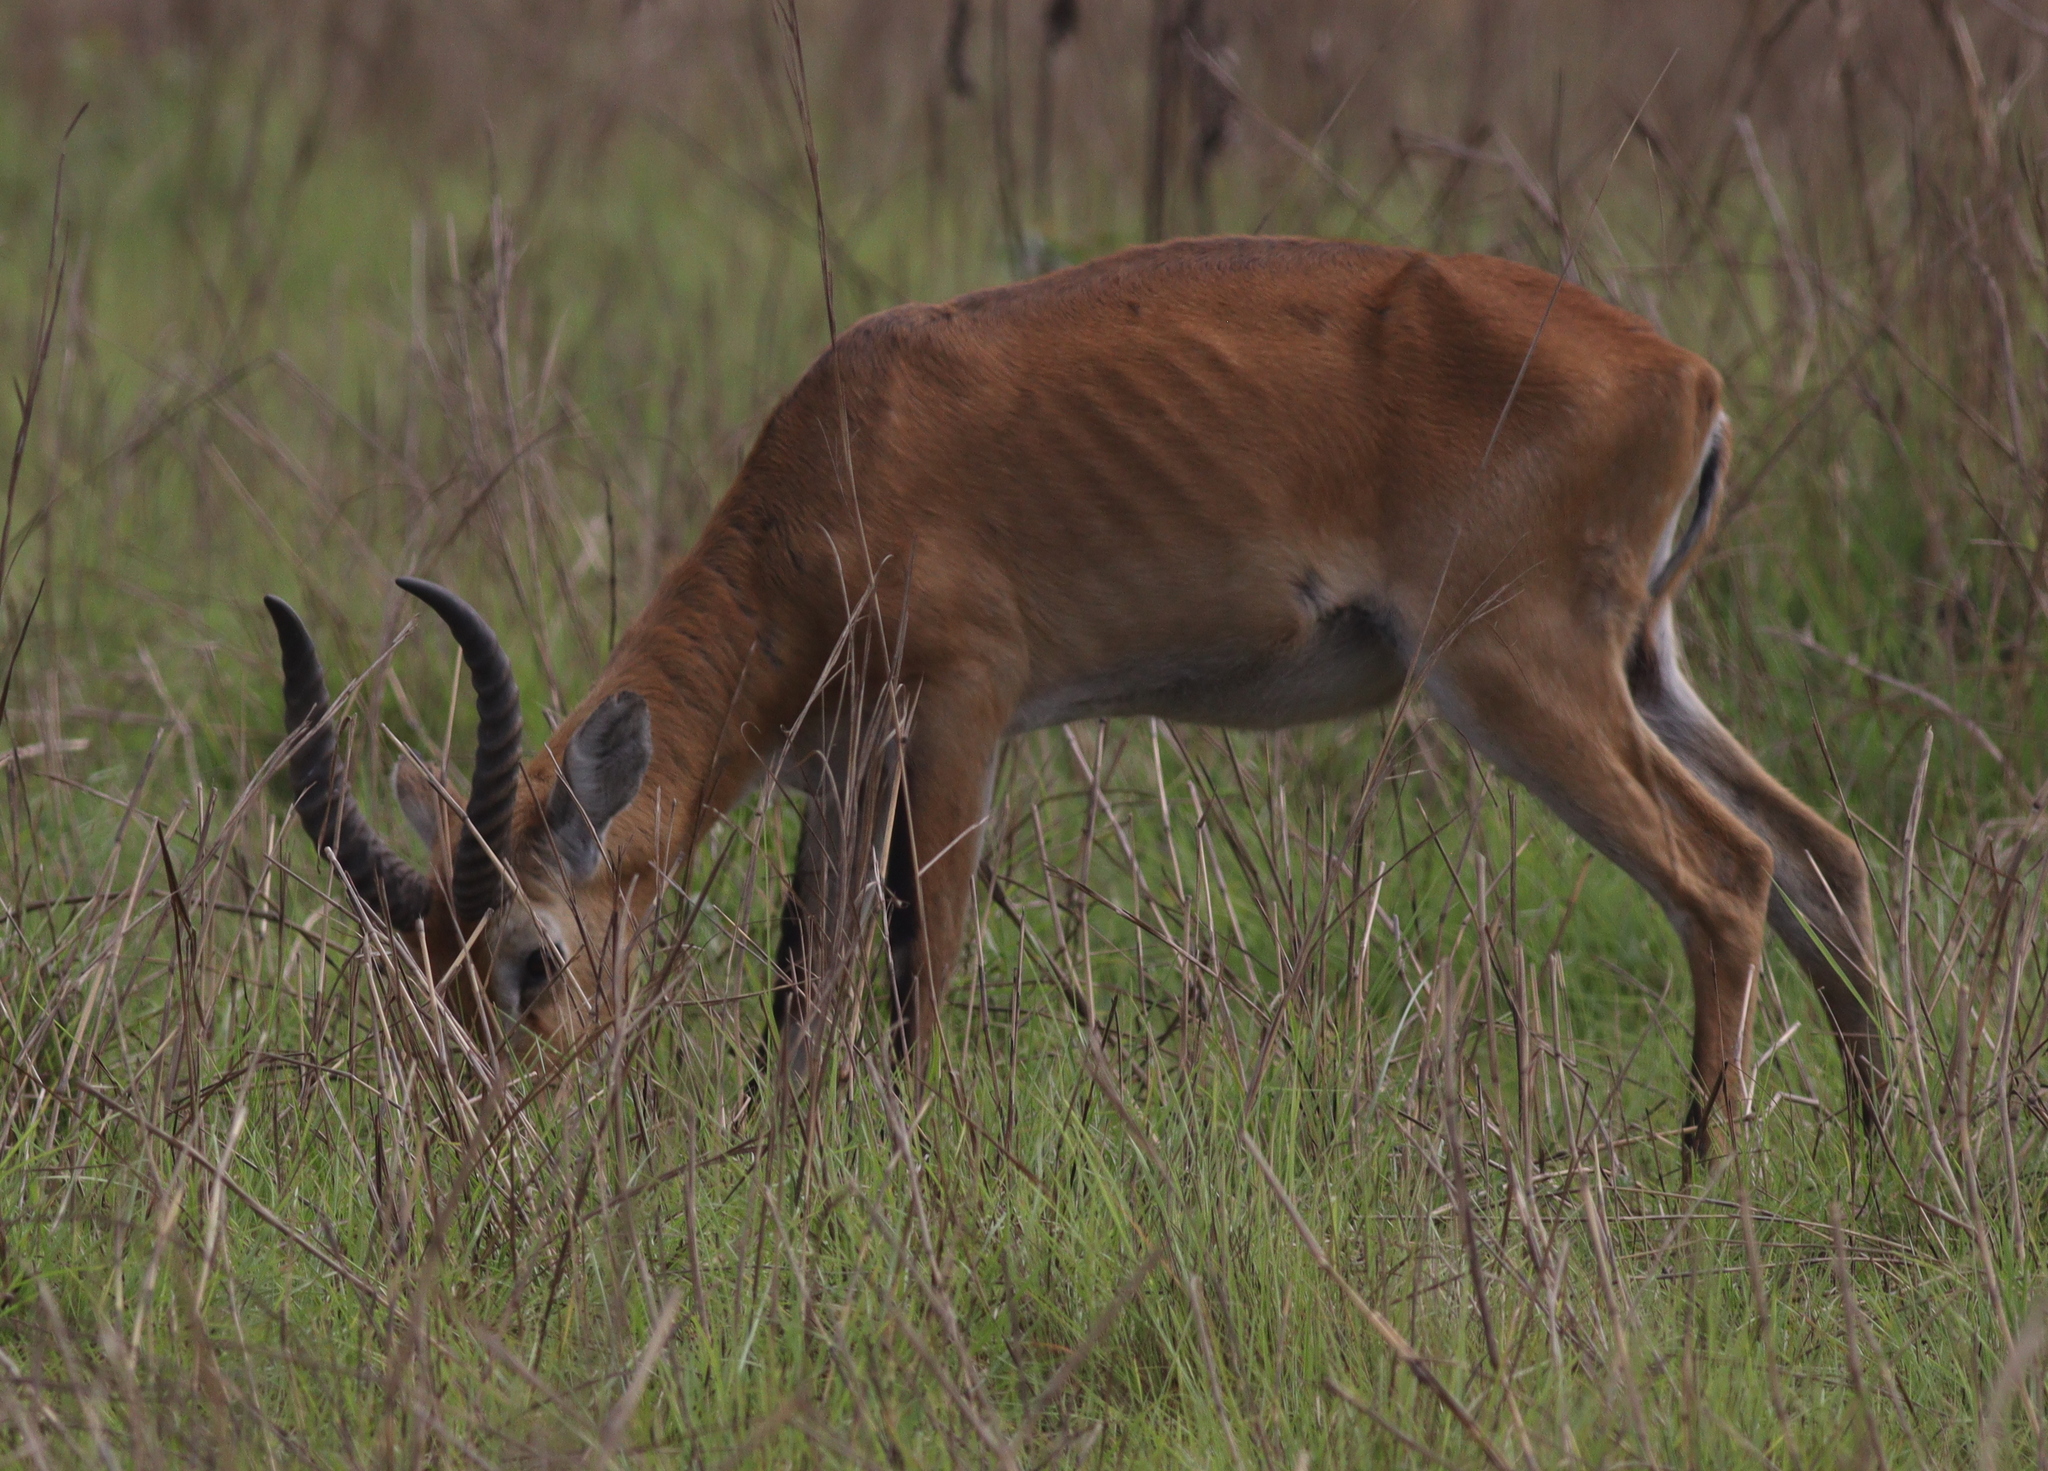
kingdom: Animalia
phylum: Chordata
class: Mammalia
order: Artiodactyla
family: Bovidae
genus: Kobus
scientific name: Kobus kob
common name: Kob
